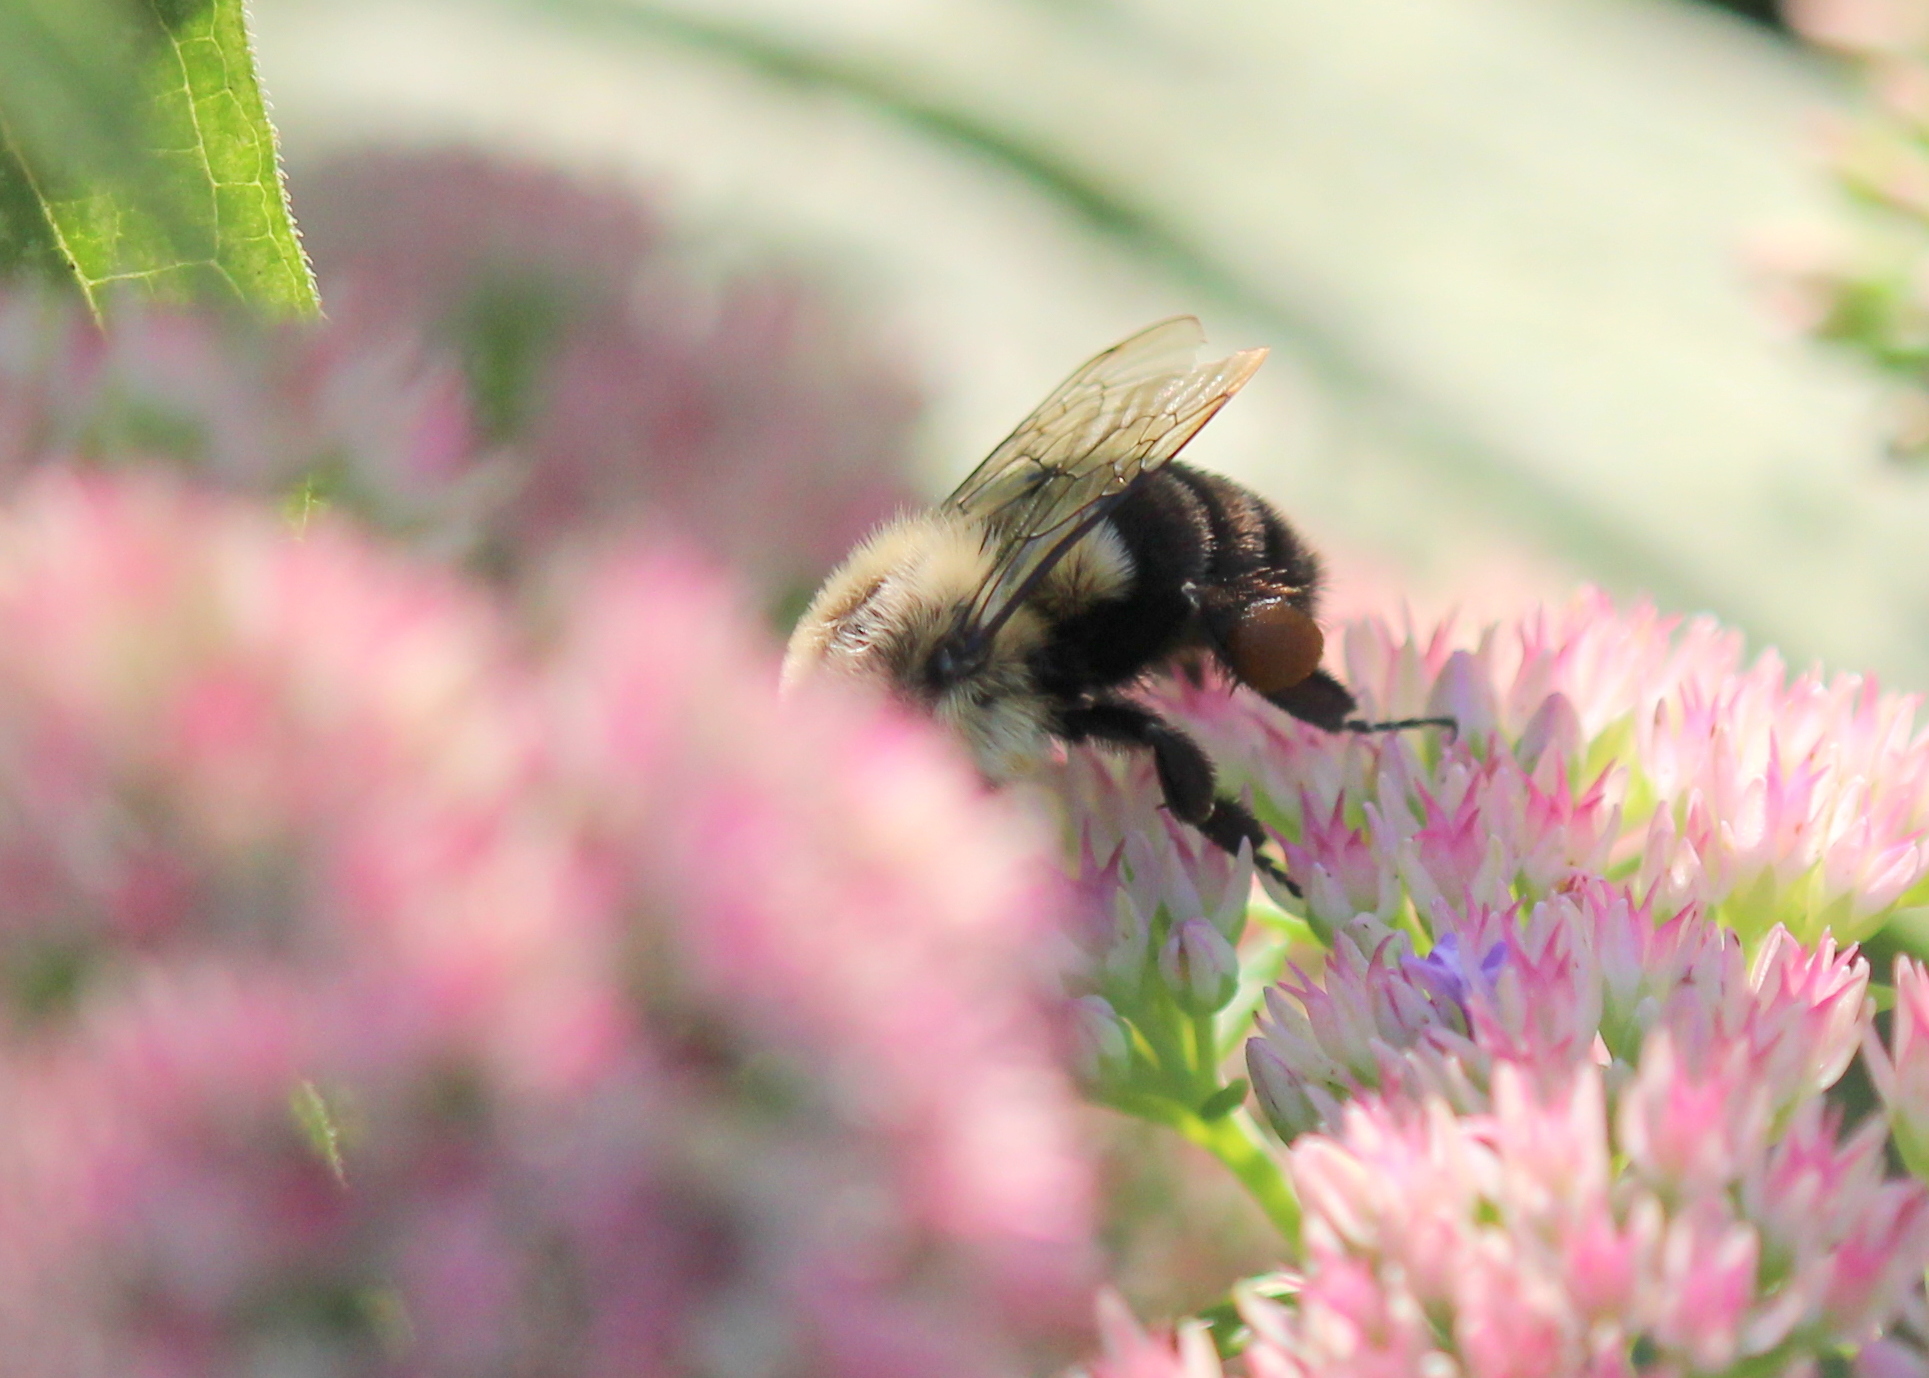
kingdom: Animalia
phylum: Arthropoda
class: Insecta
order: Hymenoptera
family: Apidae
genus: Bombus
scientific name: Bombus impatiens
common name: Common eastern bumble bee
